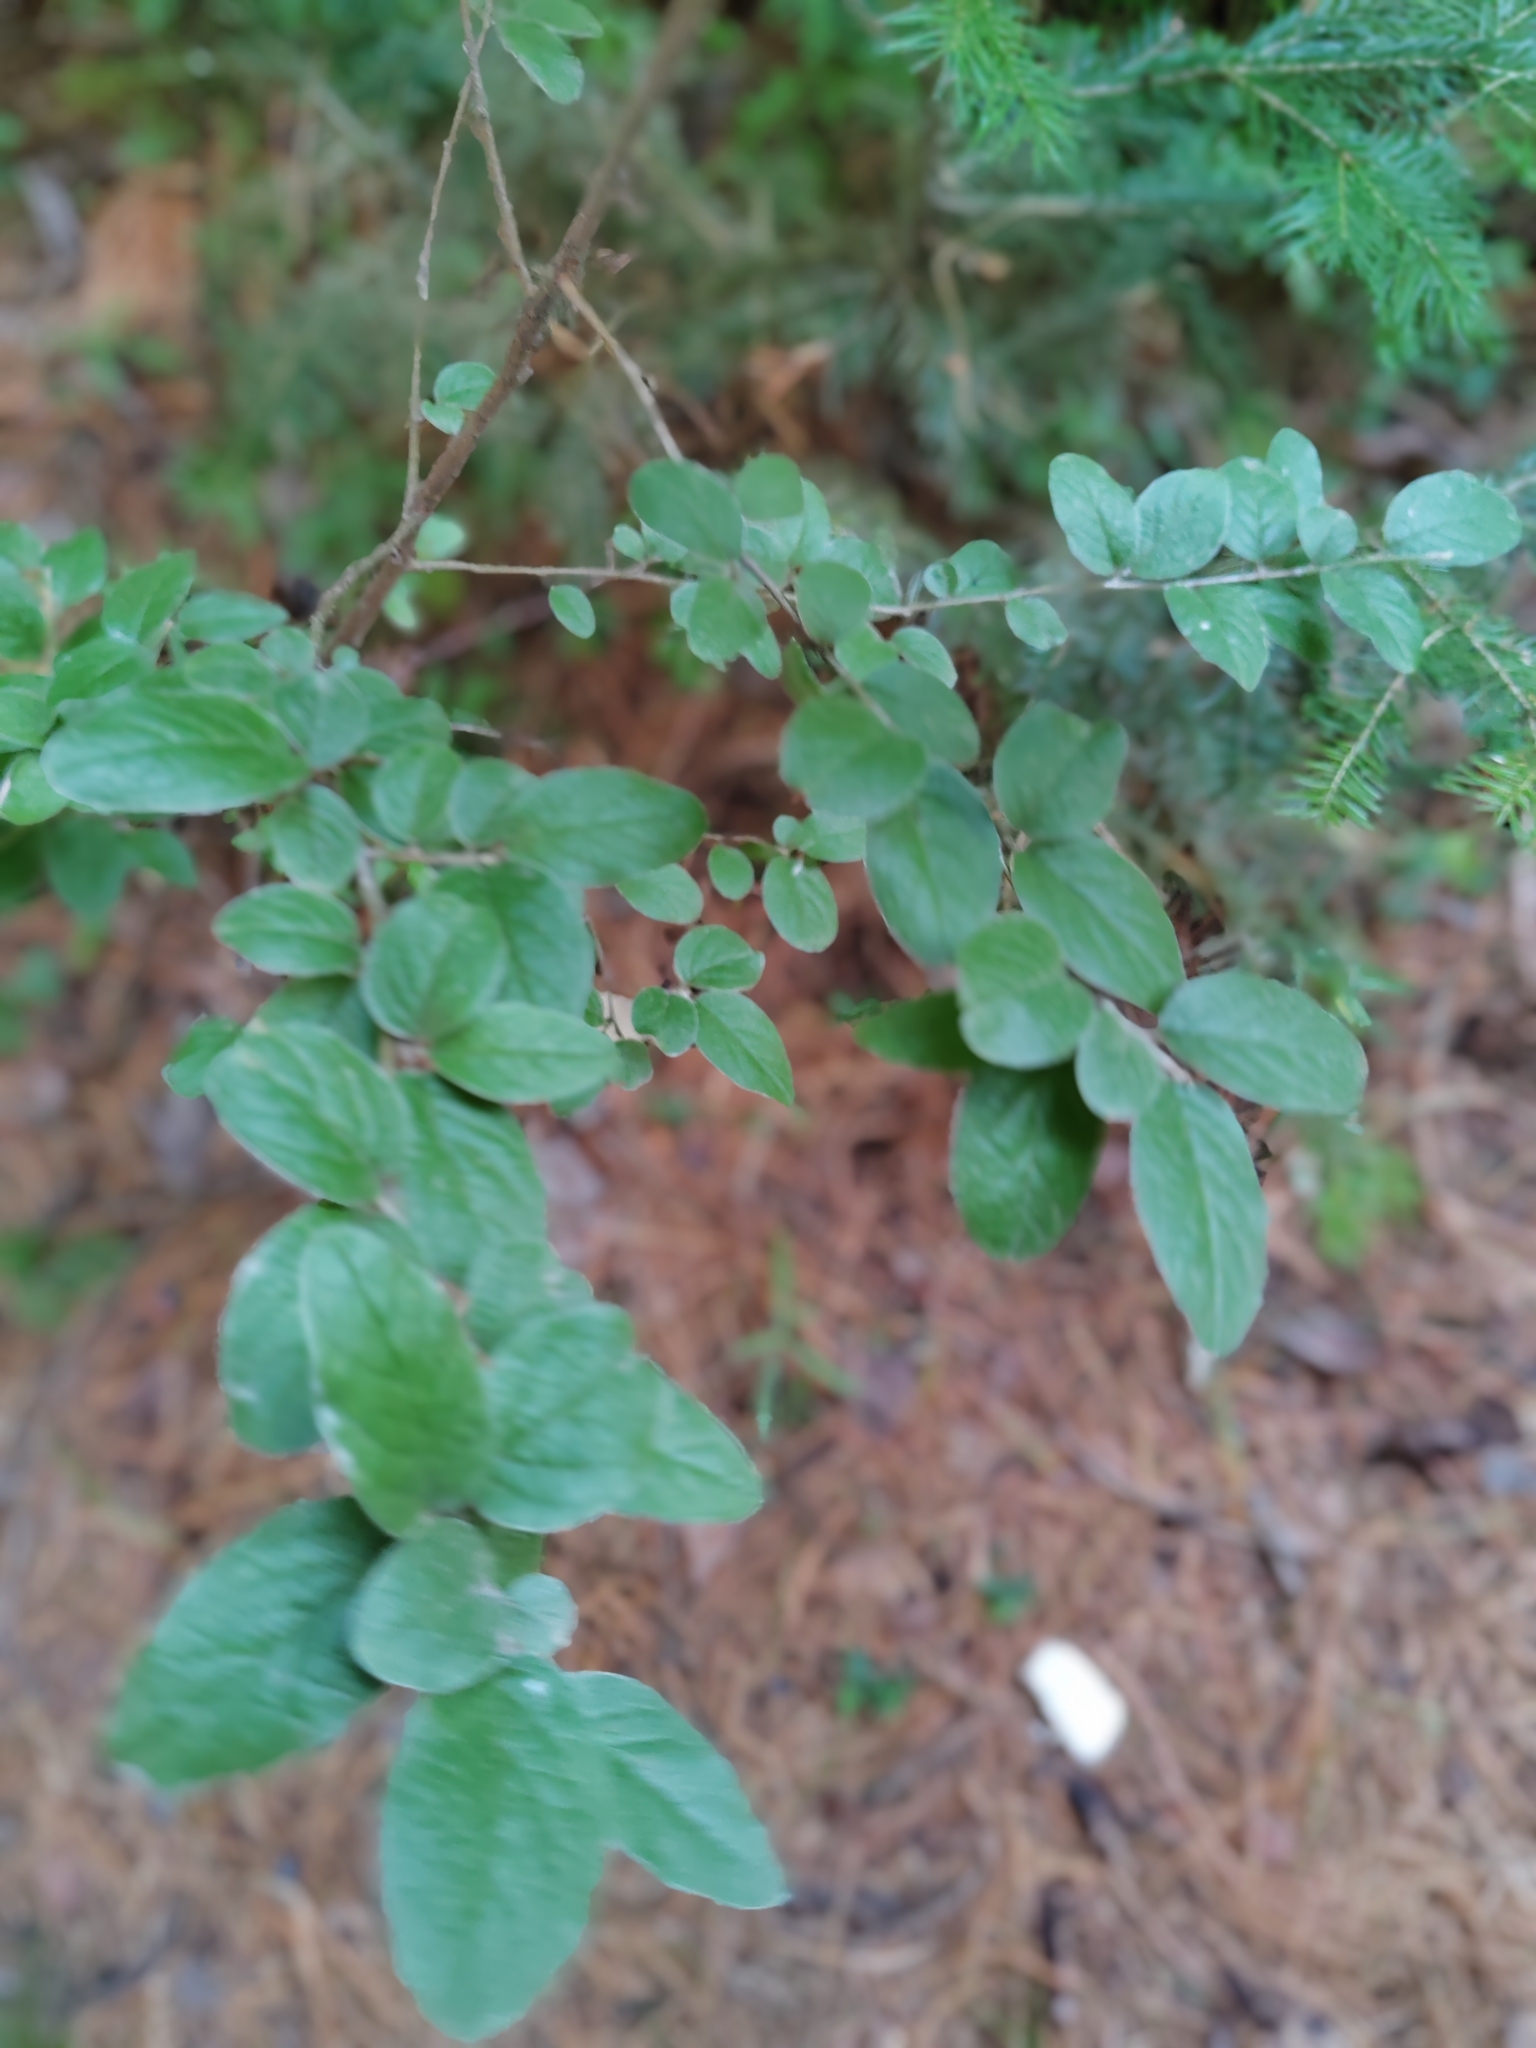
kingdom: Plantae
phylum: Tracheophyta
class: Magnoliopsida
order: Rosales
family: Rosaceae
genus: Cotoneaster
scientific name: Cotoneaster melanocarpus
